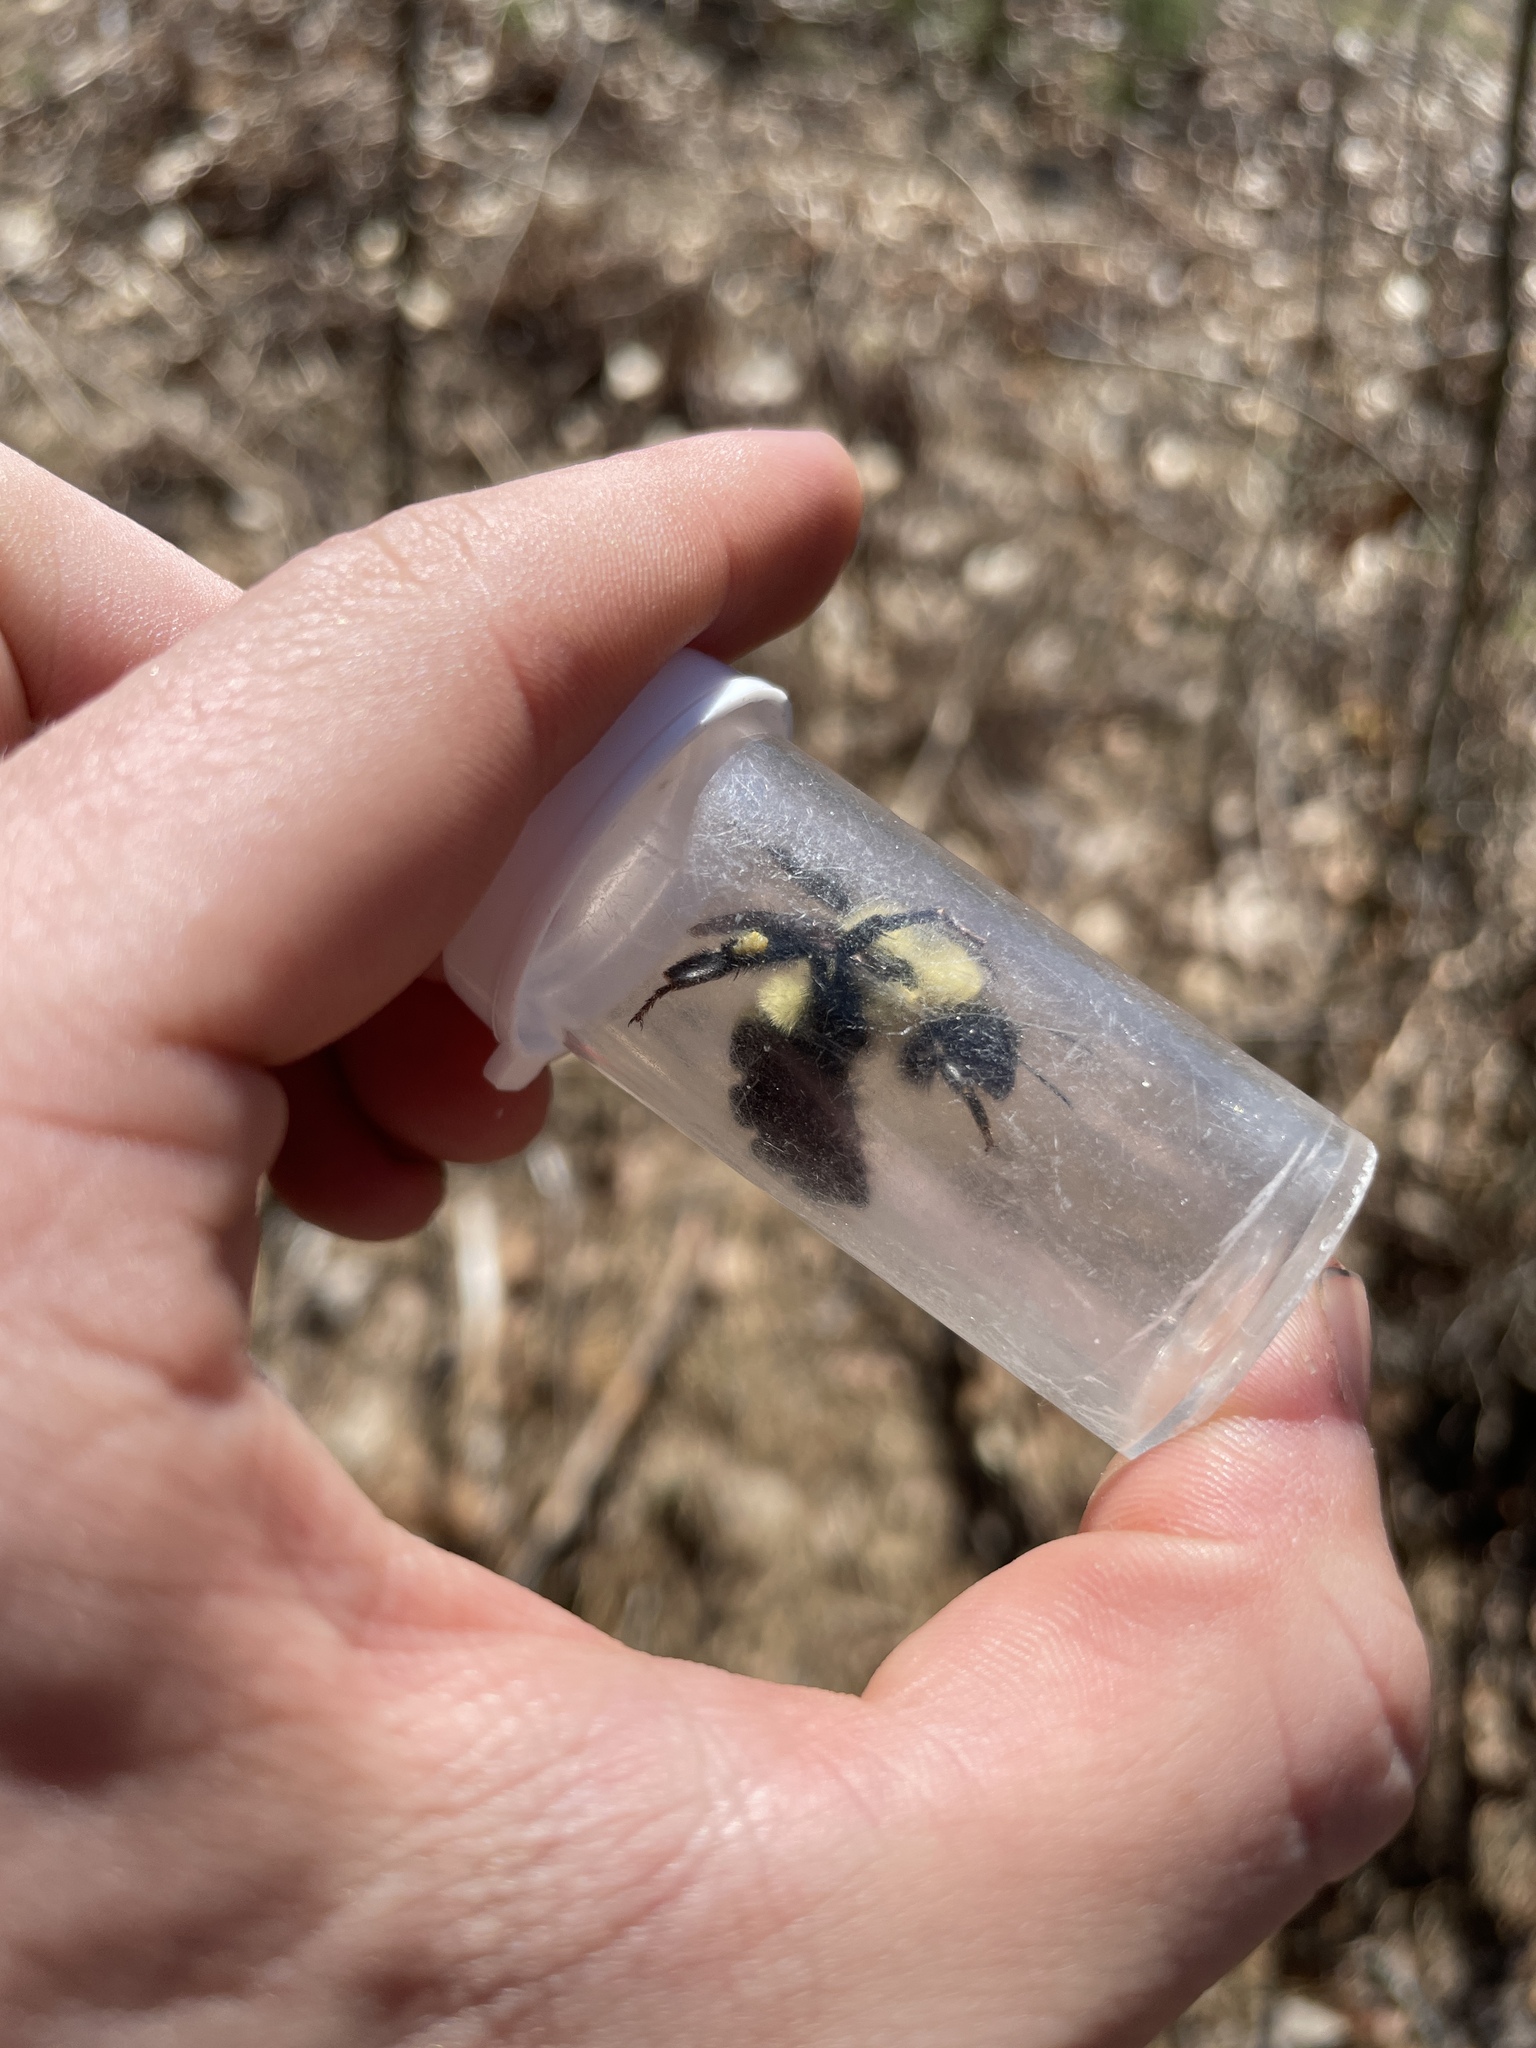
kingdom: Animalia
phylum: Arthropoda
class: Insecta
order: Hymenoptera
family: Apidae
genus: Bombus
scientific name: Bombus bimaculatus
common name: Two-spotted bumble bee
